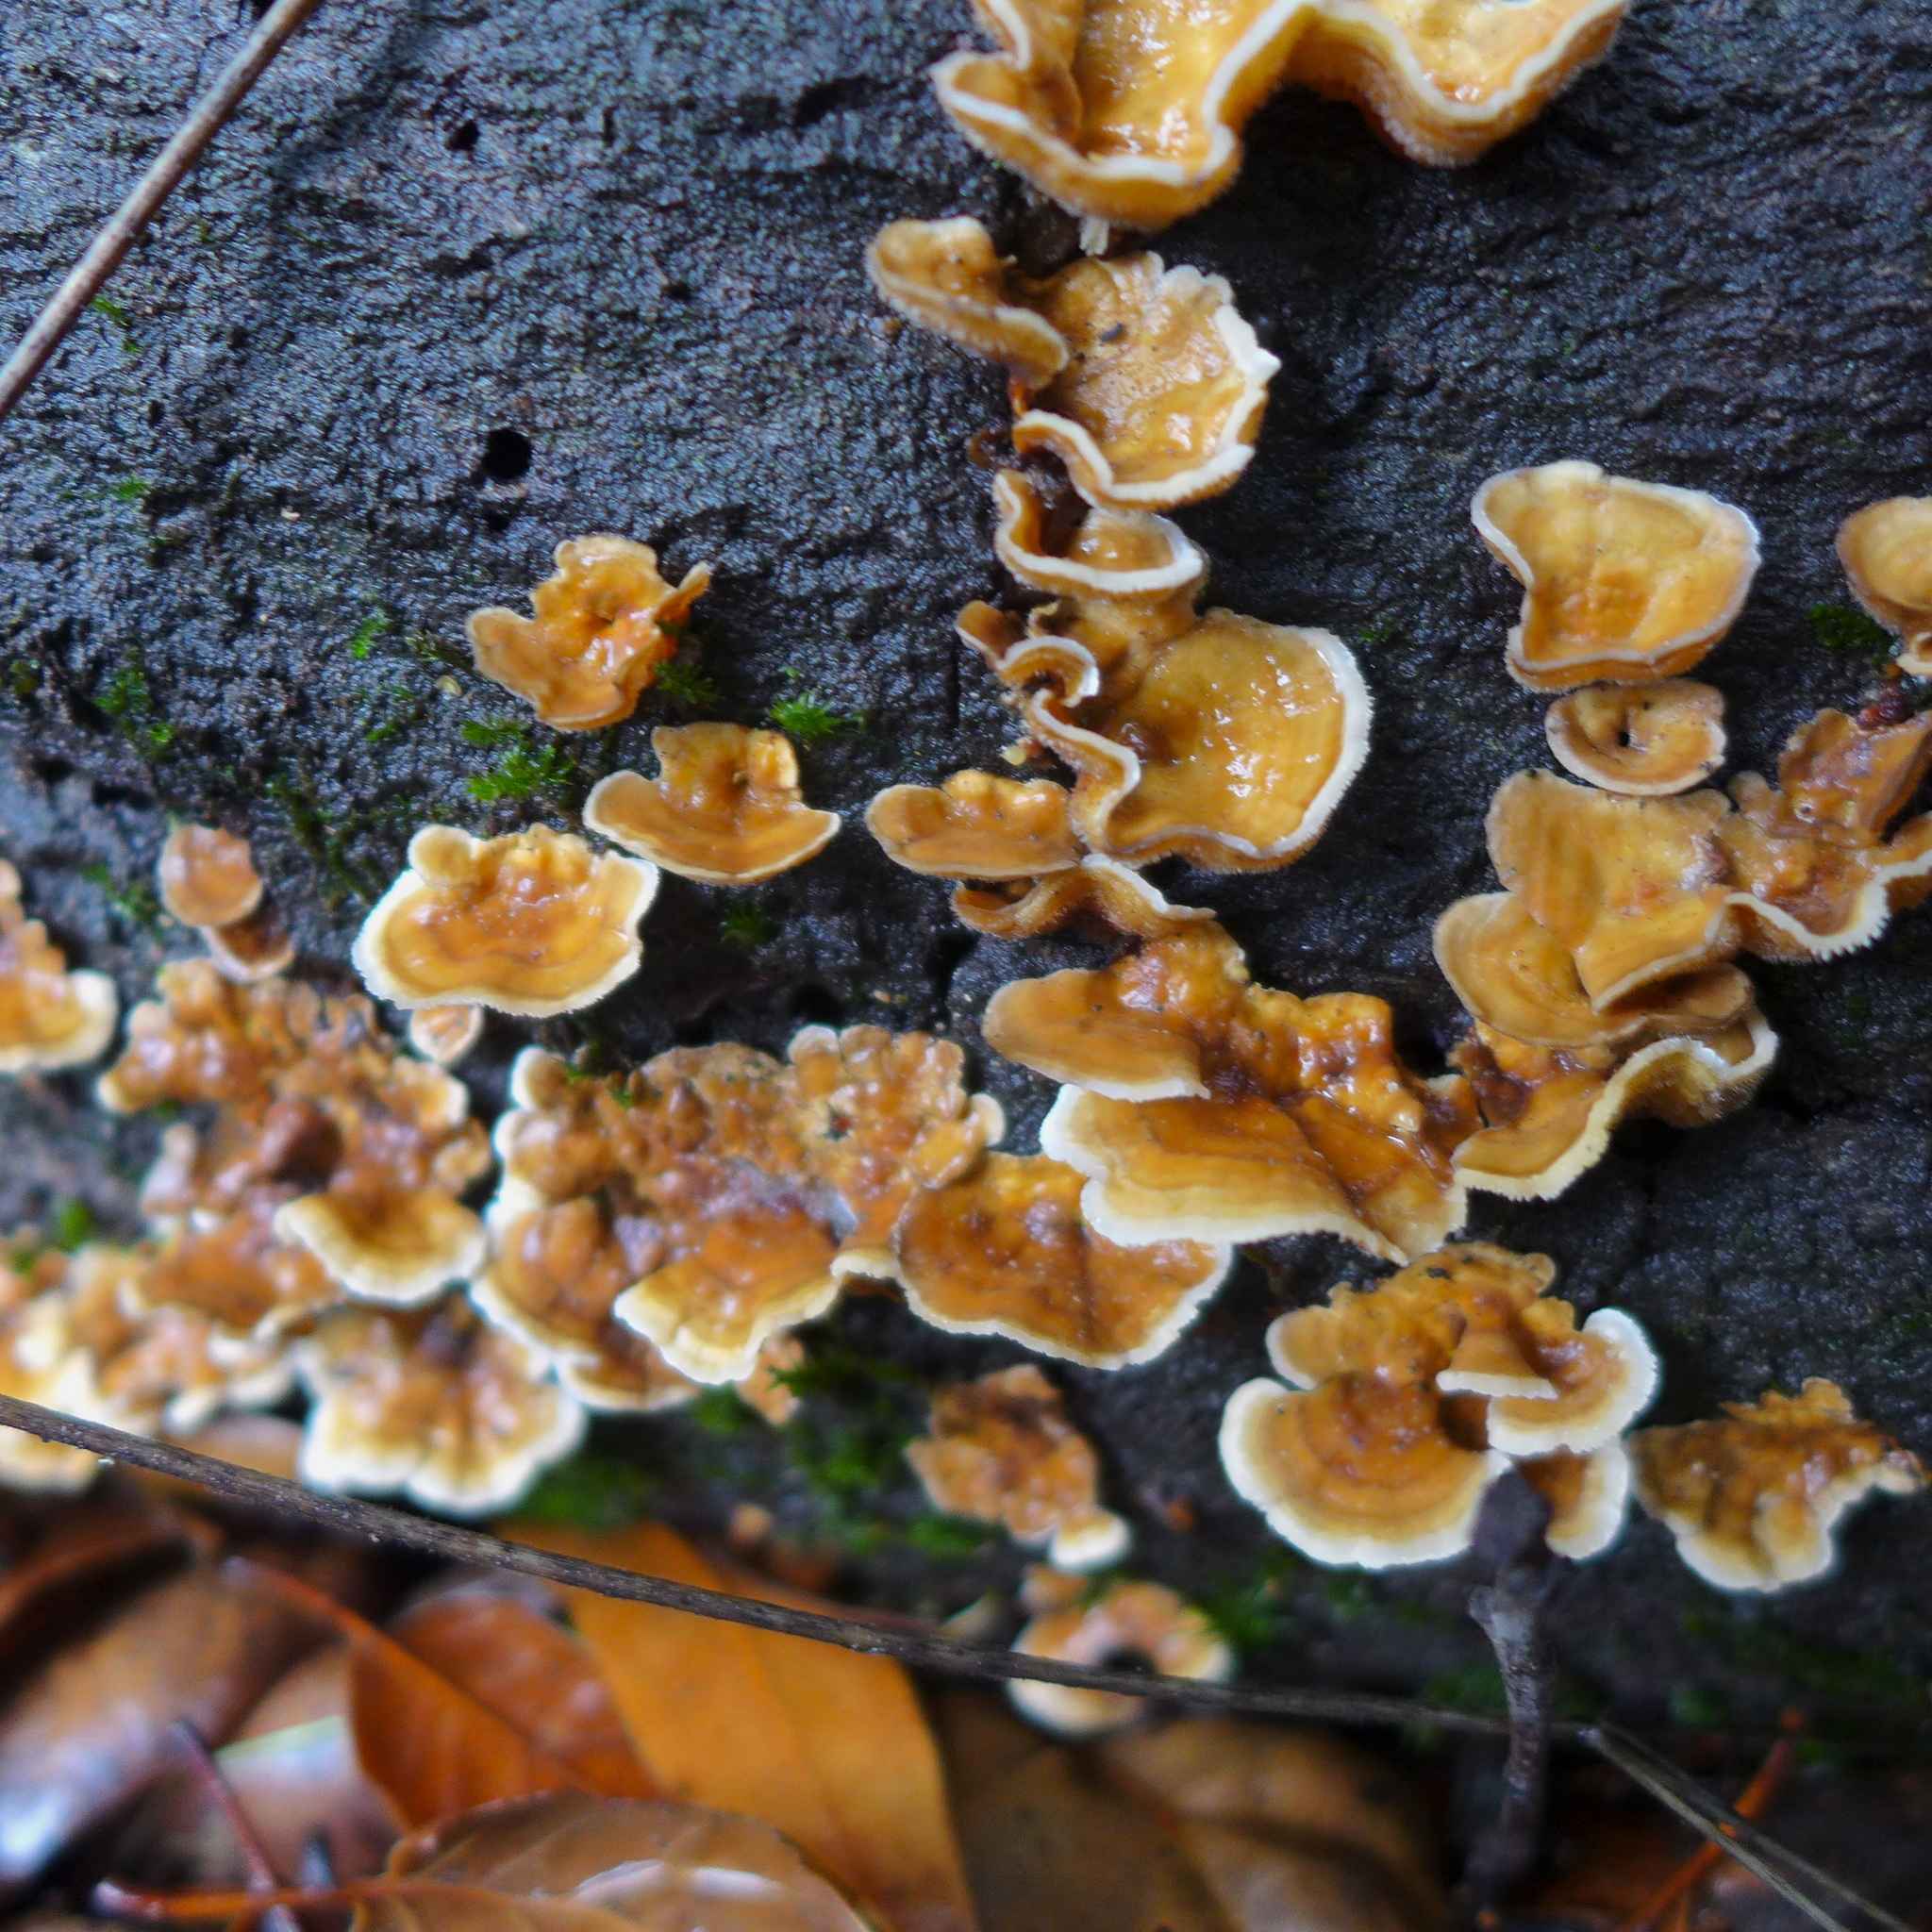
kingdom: Fungi
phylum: Basidiomycota
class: Agaricomycetes
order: Russulales
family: Stereaceae
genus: Stereum
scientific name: Stereum hirsutum
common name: Hairy curtain crust
